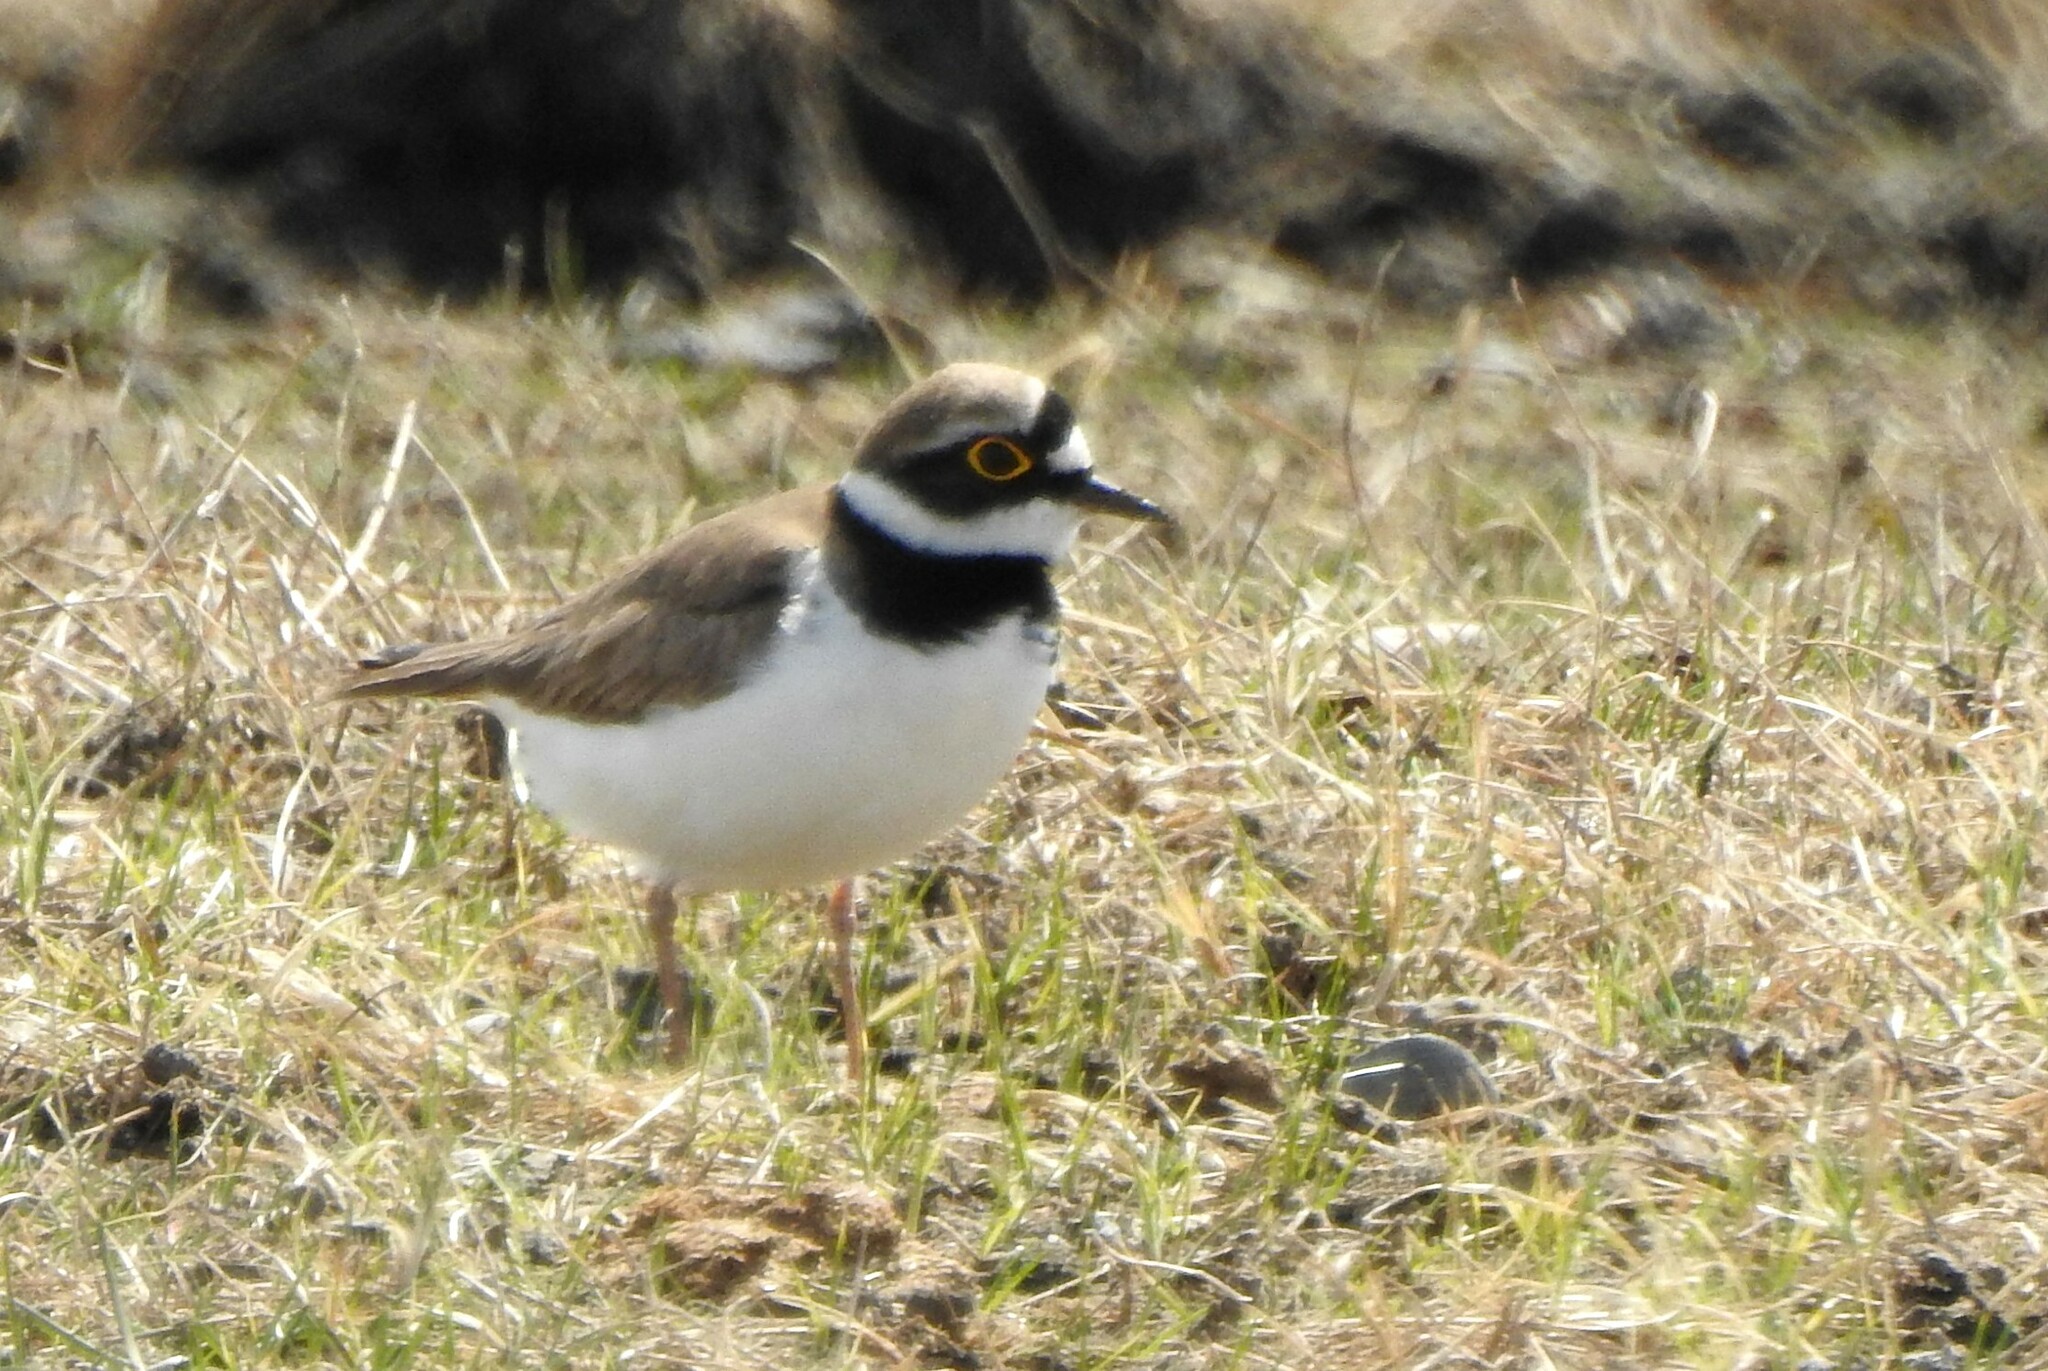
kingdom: Animalia
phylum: Chordata
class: Aves
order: Charadriiformes
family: Charadriidae
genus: Charadrius
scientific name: Charadrius dubius
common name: Little ringed plover
